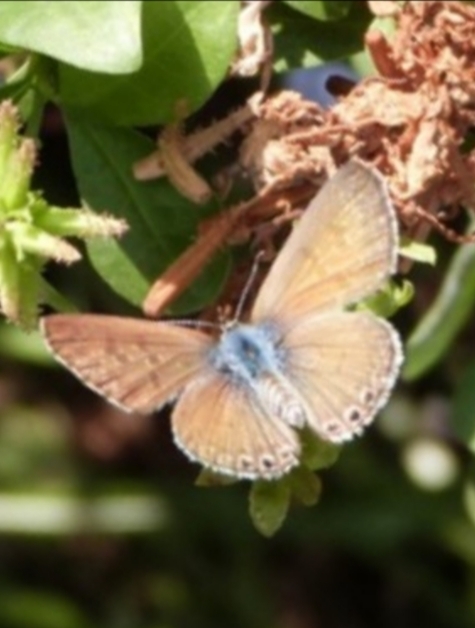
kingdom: Animalia
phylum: Arthropoda
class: Insecta
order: Lepidoptera
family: Lycaenidae
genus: Leptotes
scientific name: Leptotes trigemmatus
